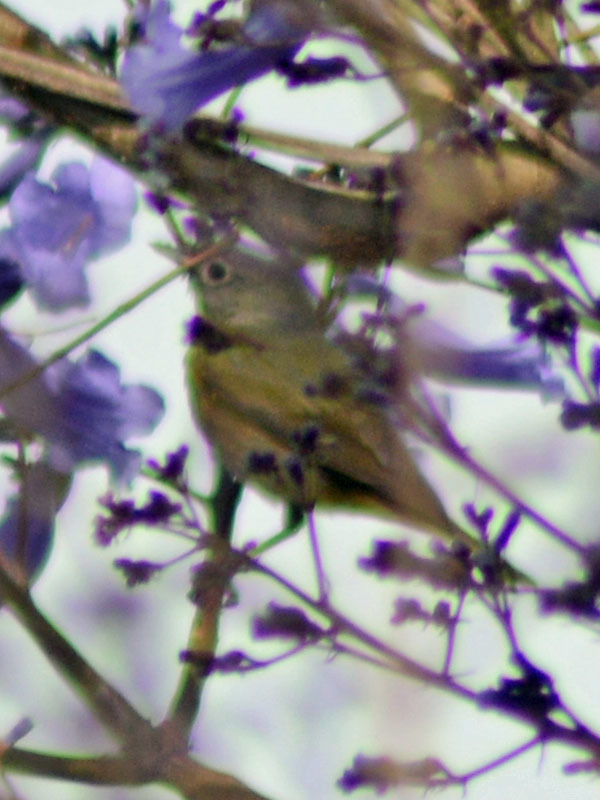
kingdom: Animalia
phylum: Chordata
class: Aves
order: Passeriformes
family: Parulidae
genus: Leiothlypis
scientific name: Leiothlypis ruficapilla
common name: Nashville warbler
